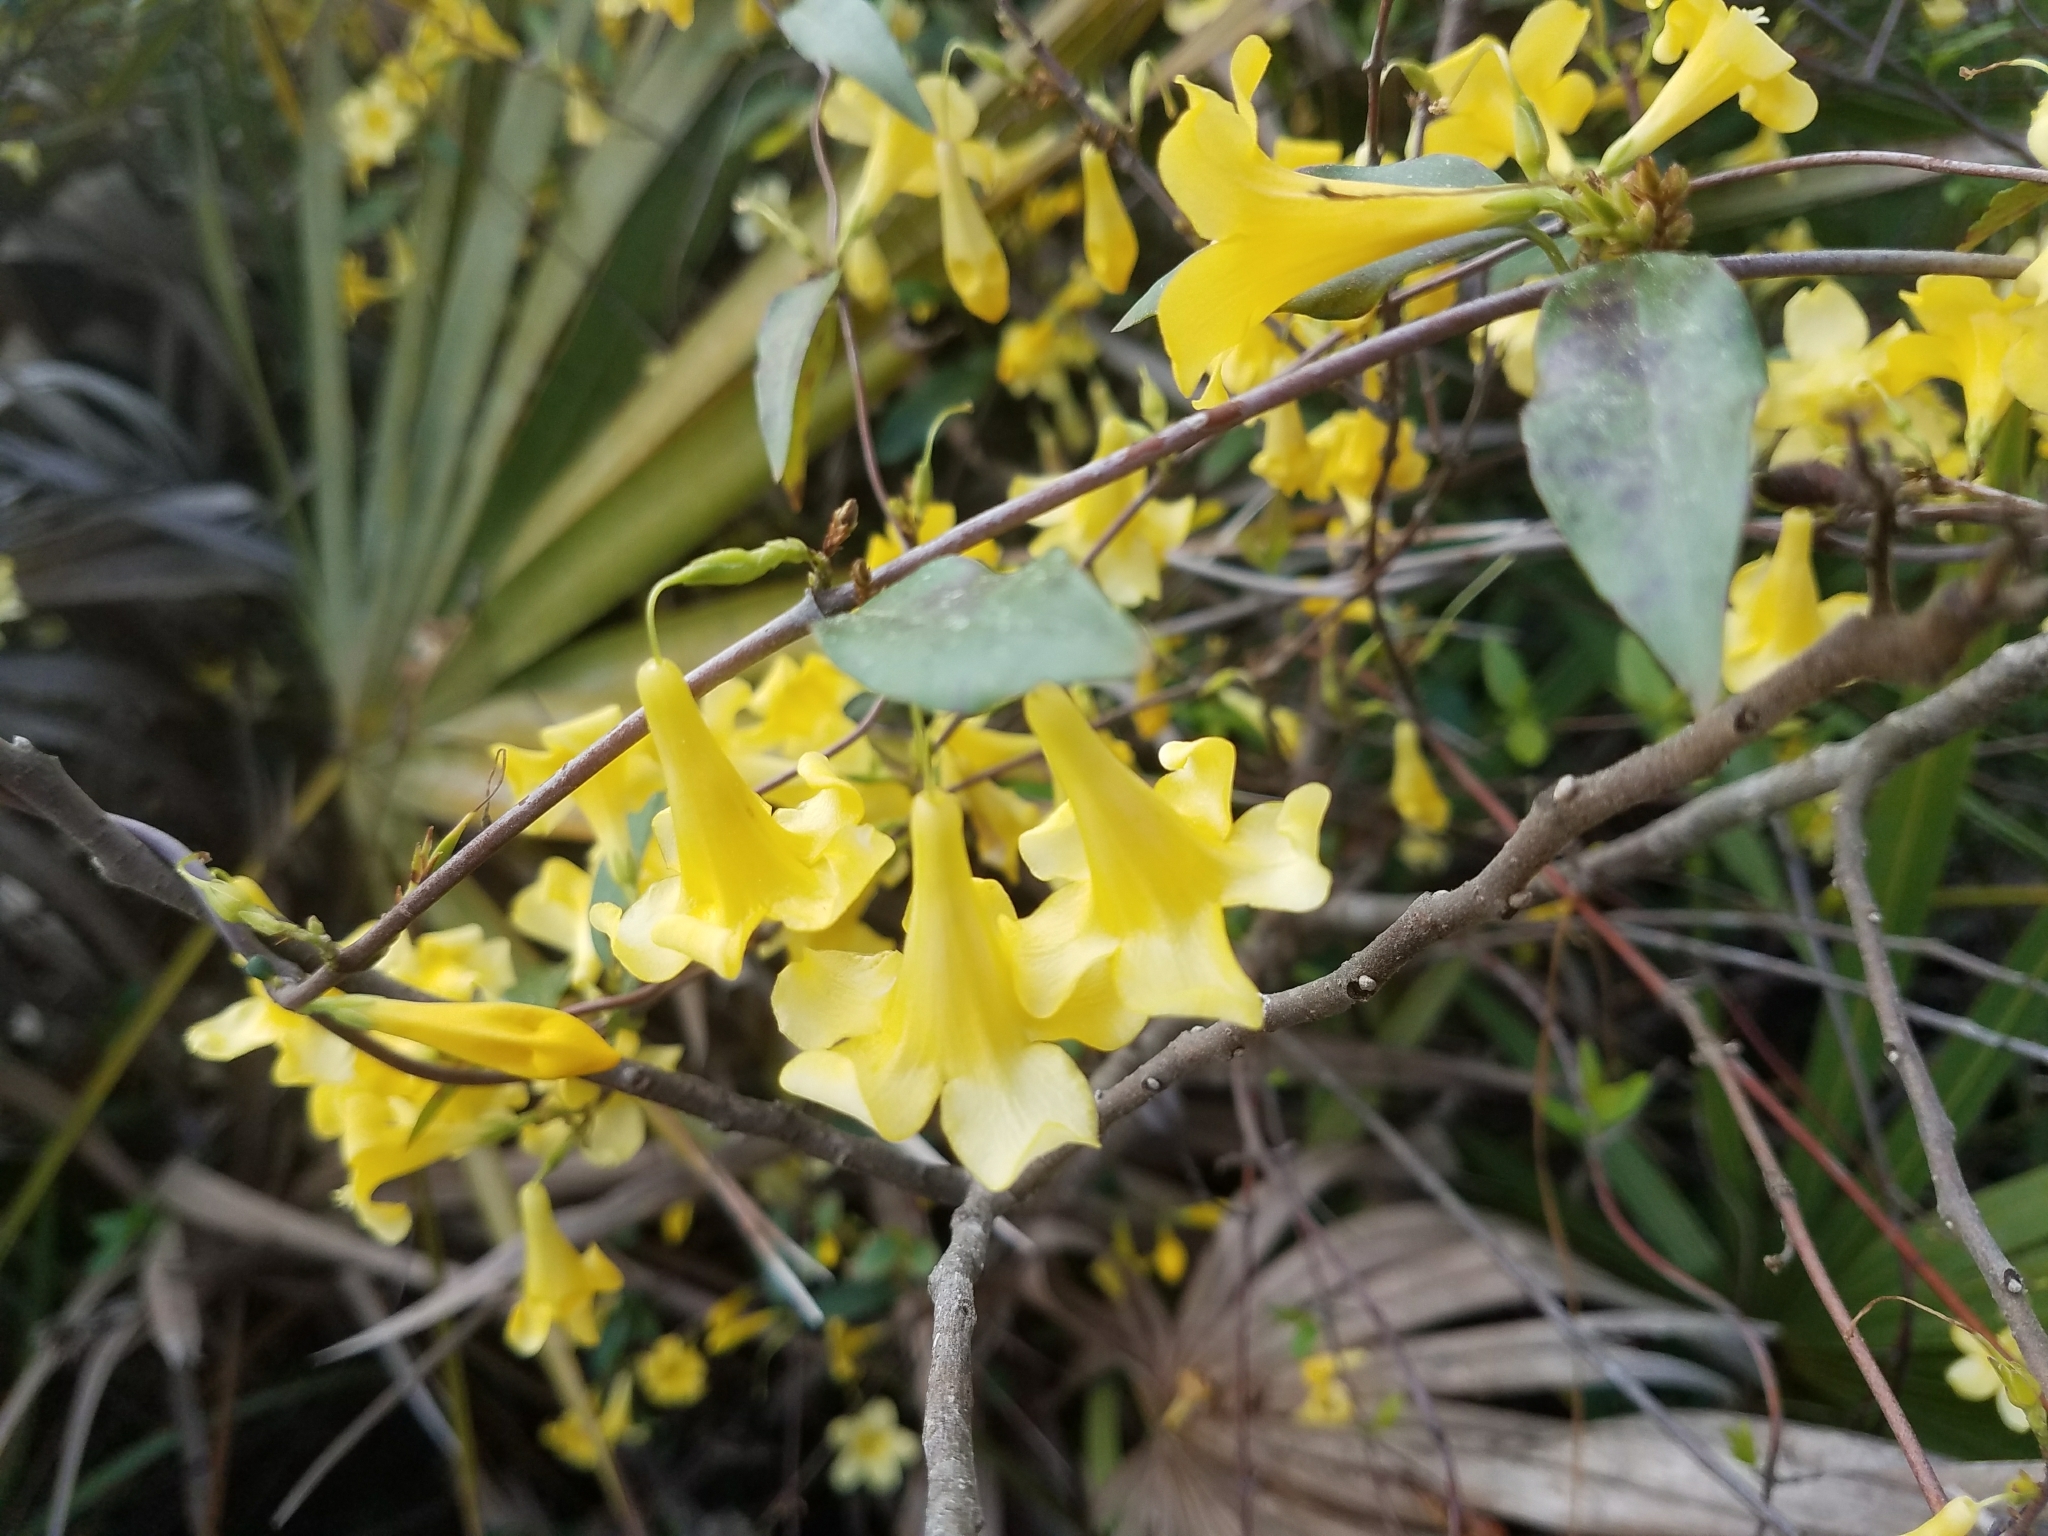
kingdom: Plantae
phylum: Tracheophyta
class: Magnoliopsida
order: Gentianales
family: Gelsemiaceae
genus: Gelsemium
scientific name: Gelsemium sempervirens
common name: Carolina-jasmine
